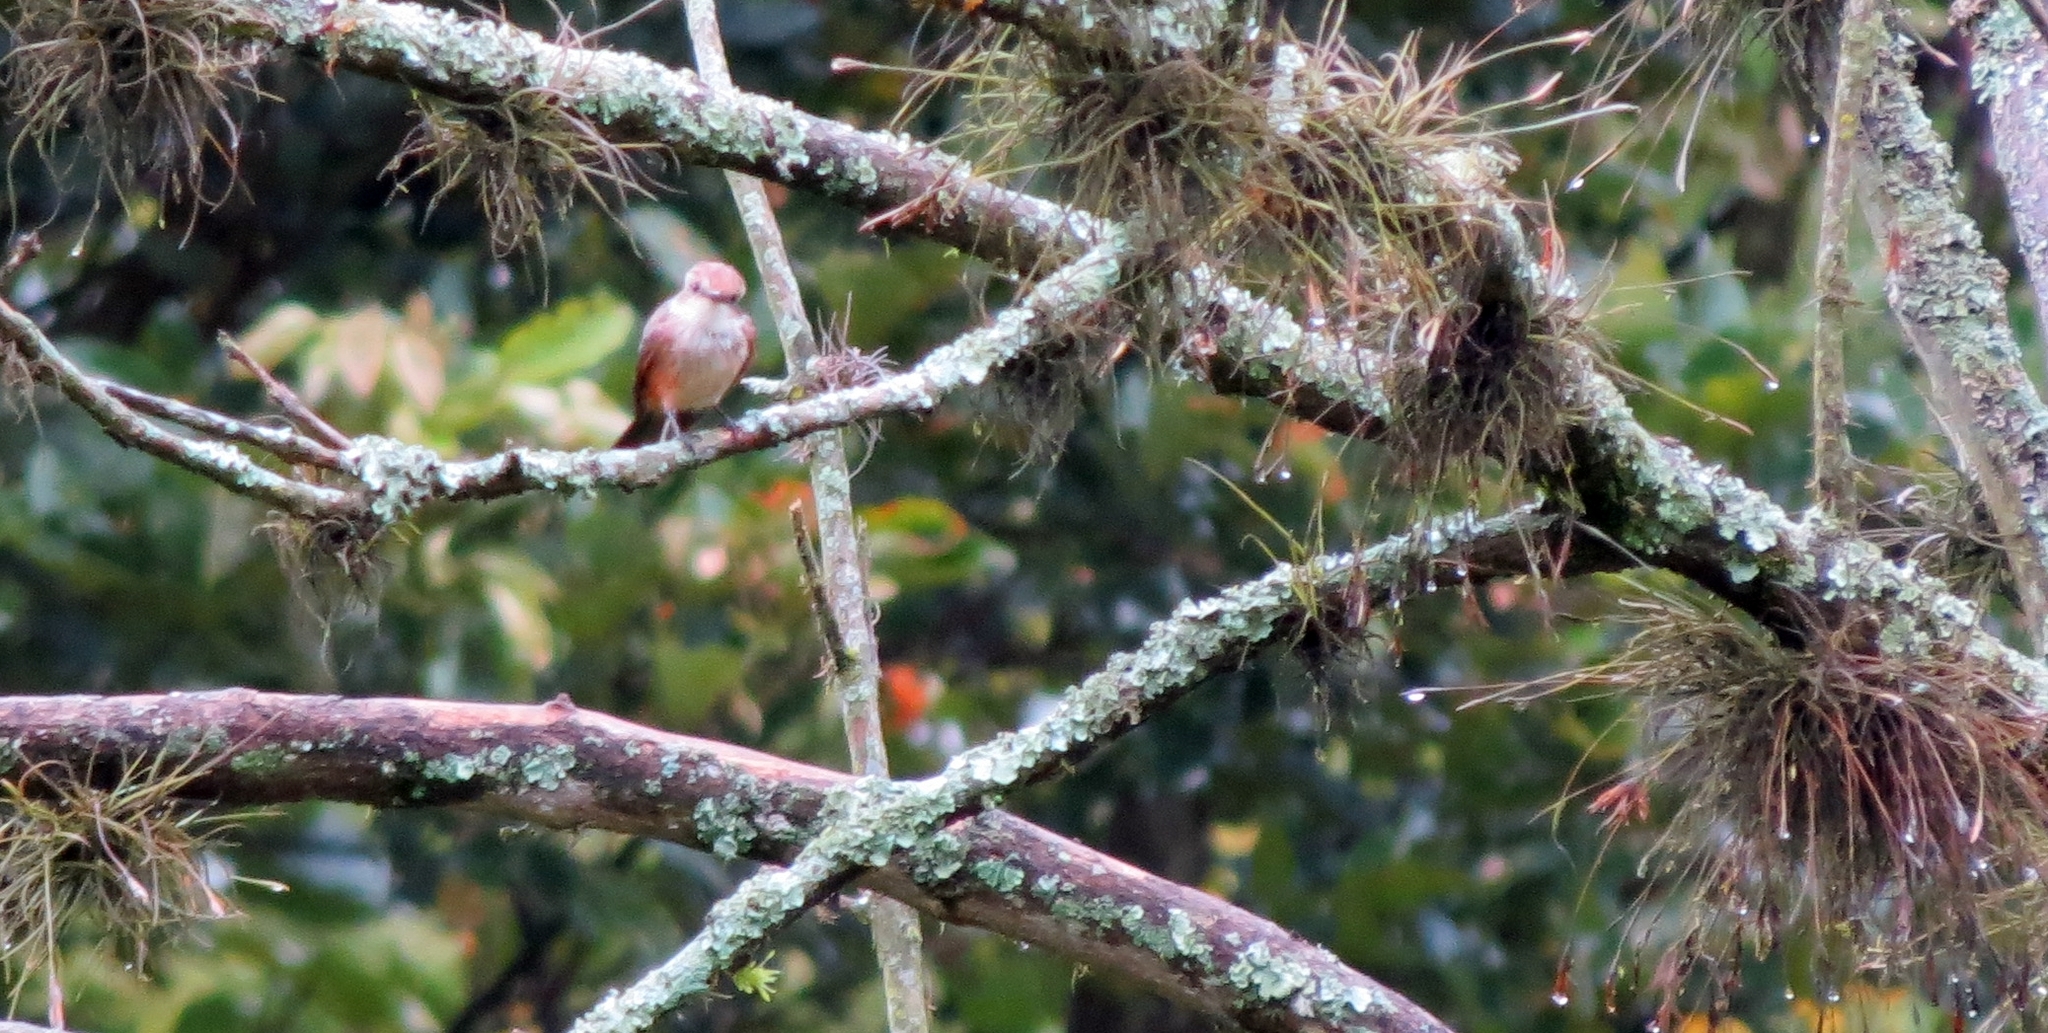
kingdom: Animalia
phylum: Chordata
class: Aves
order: Passeriformes
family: Tyrannidae
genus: Pyrocephalus
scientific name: Pyrocephalus rubinus
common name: Vermilion flycatcher
